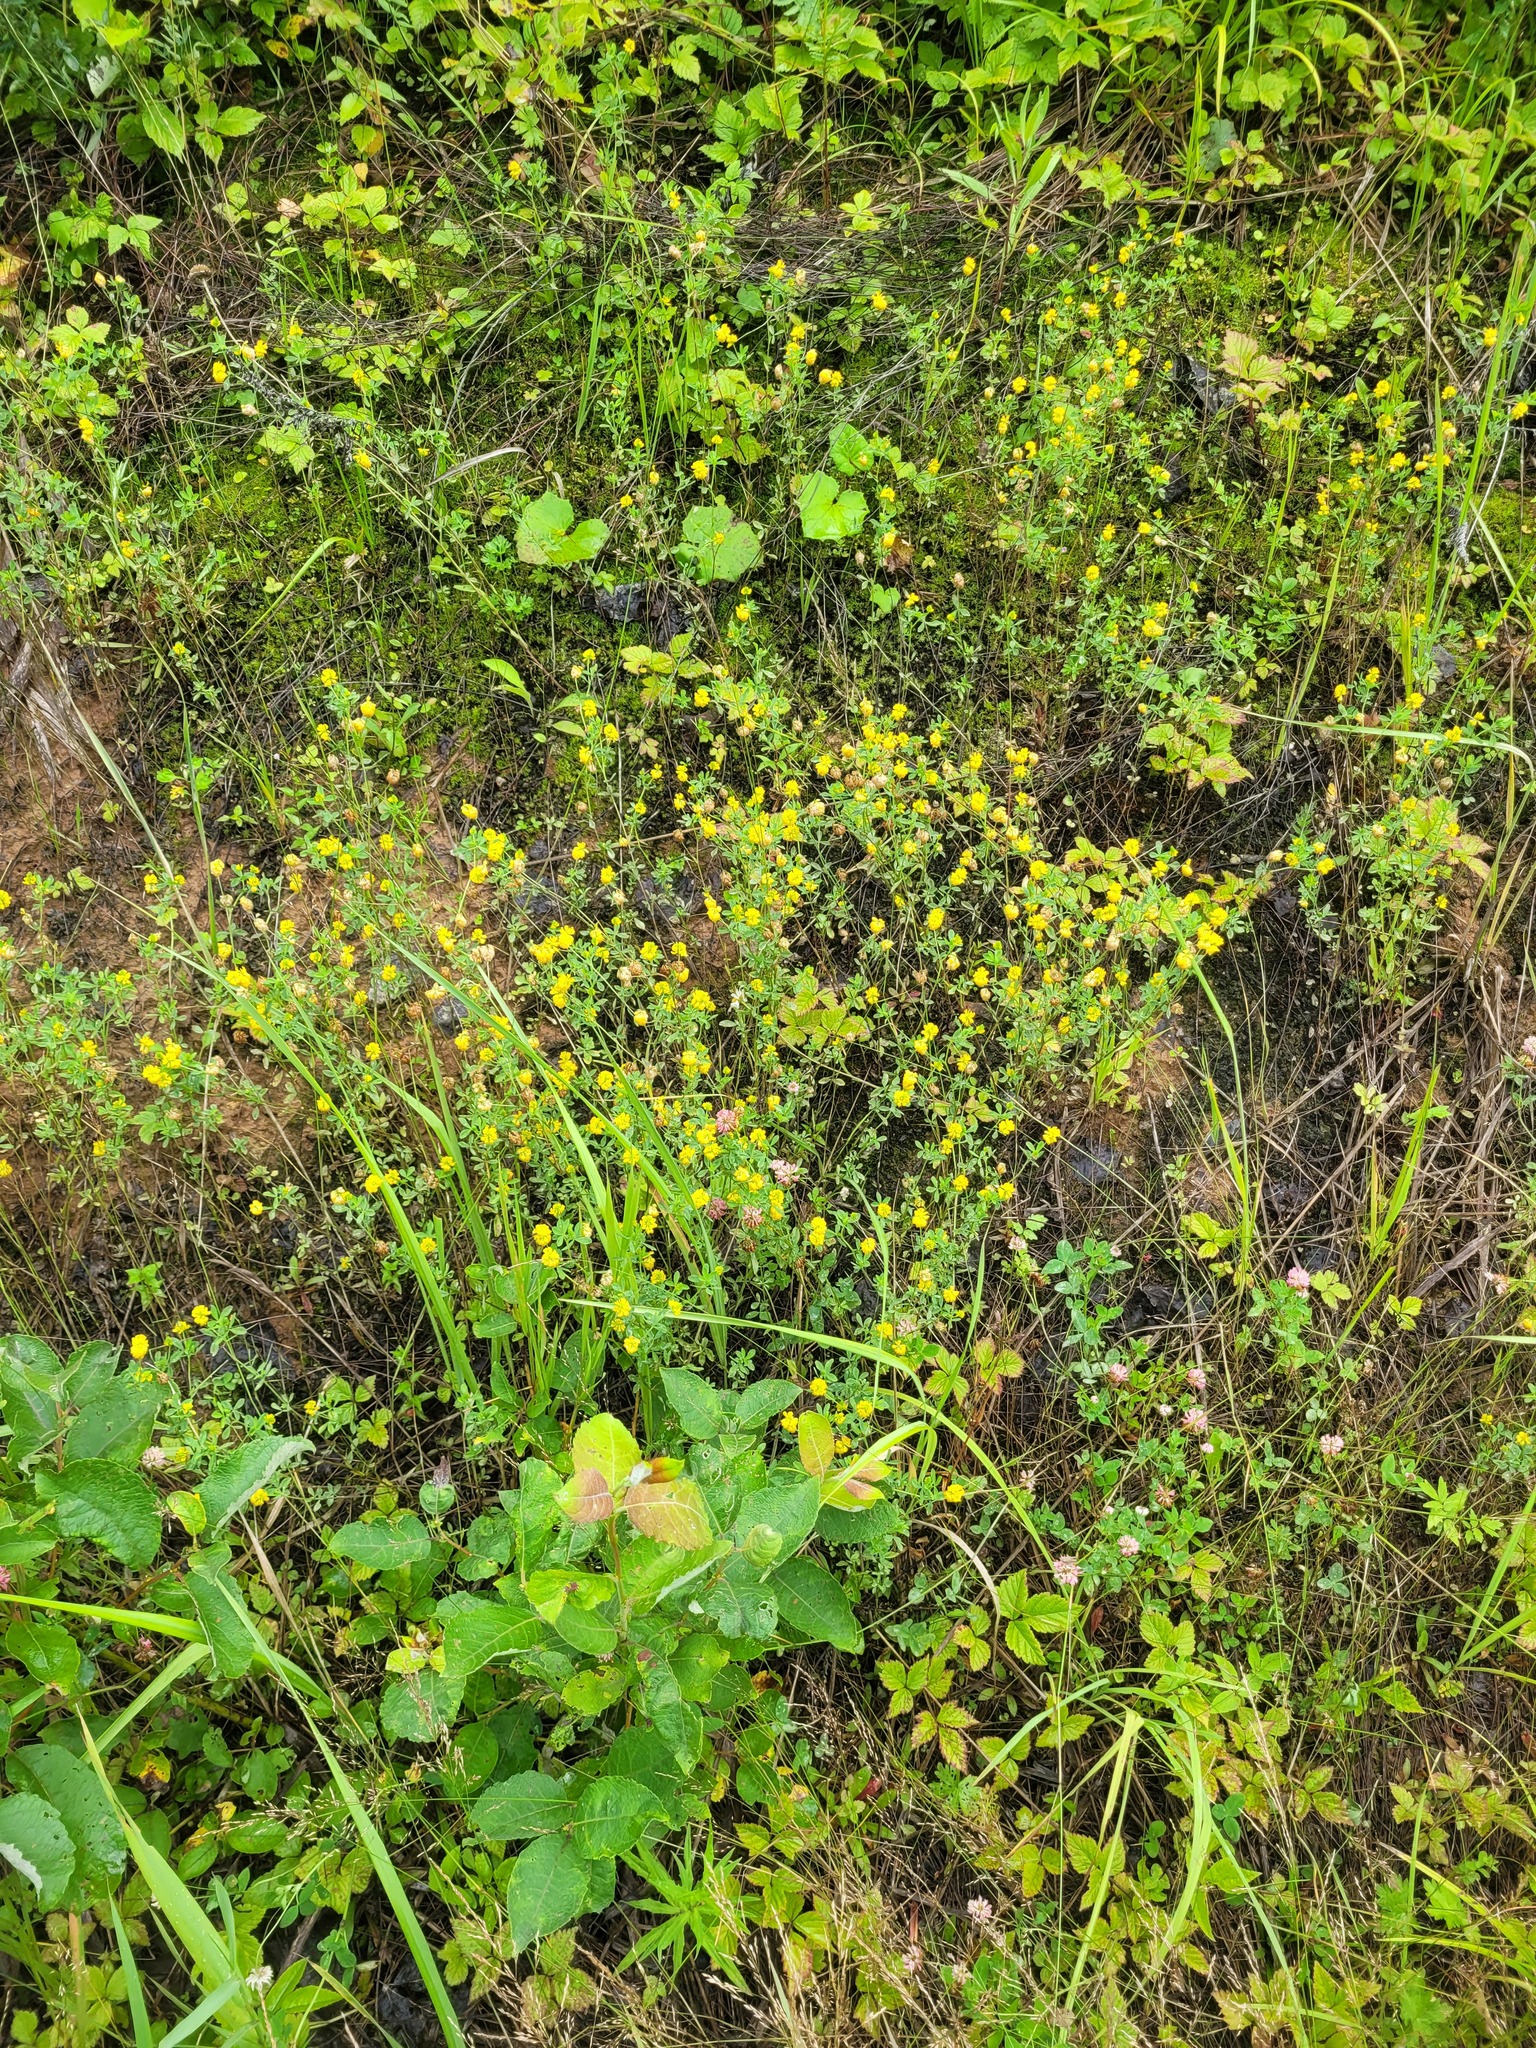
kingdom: Plantae
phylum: Tracheophyta
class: Magnoliopsida
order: Fabales
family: Fabaceae
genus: Trifolium
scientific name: Trifolium aureum
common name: Golden clover
